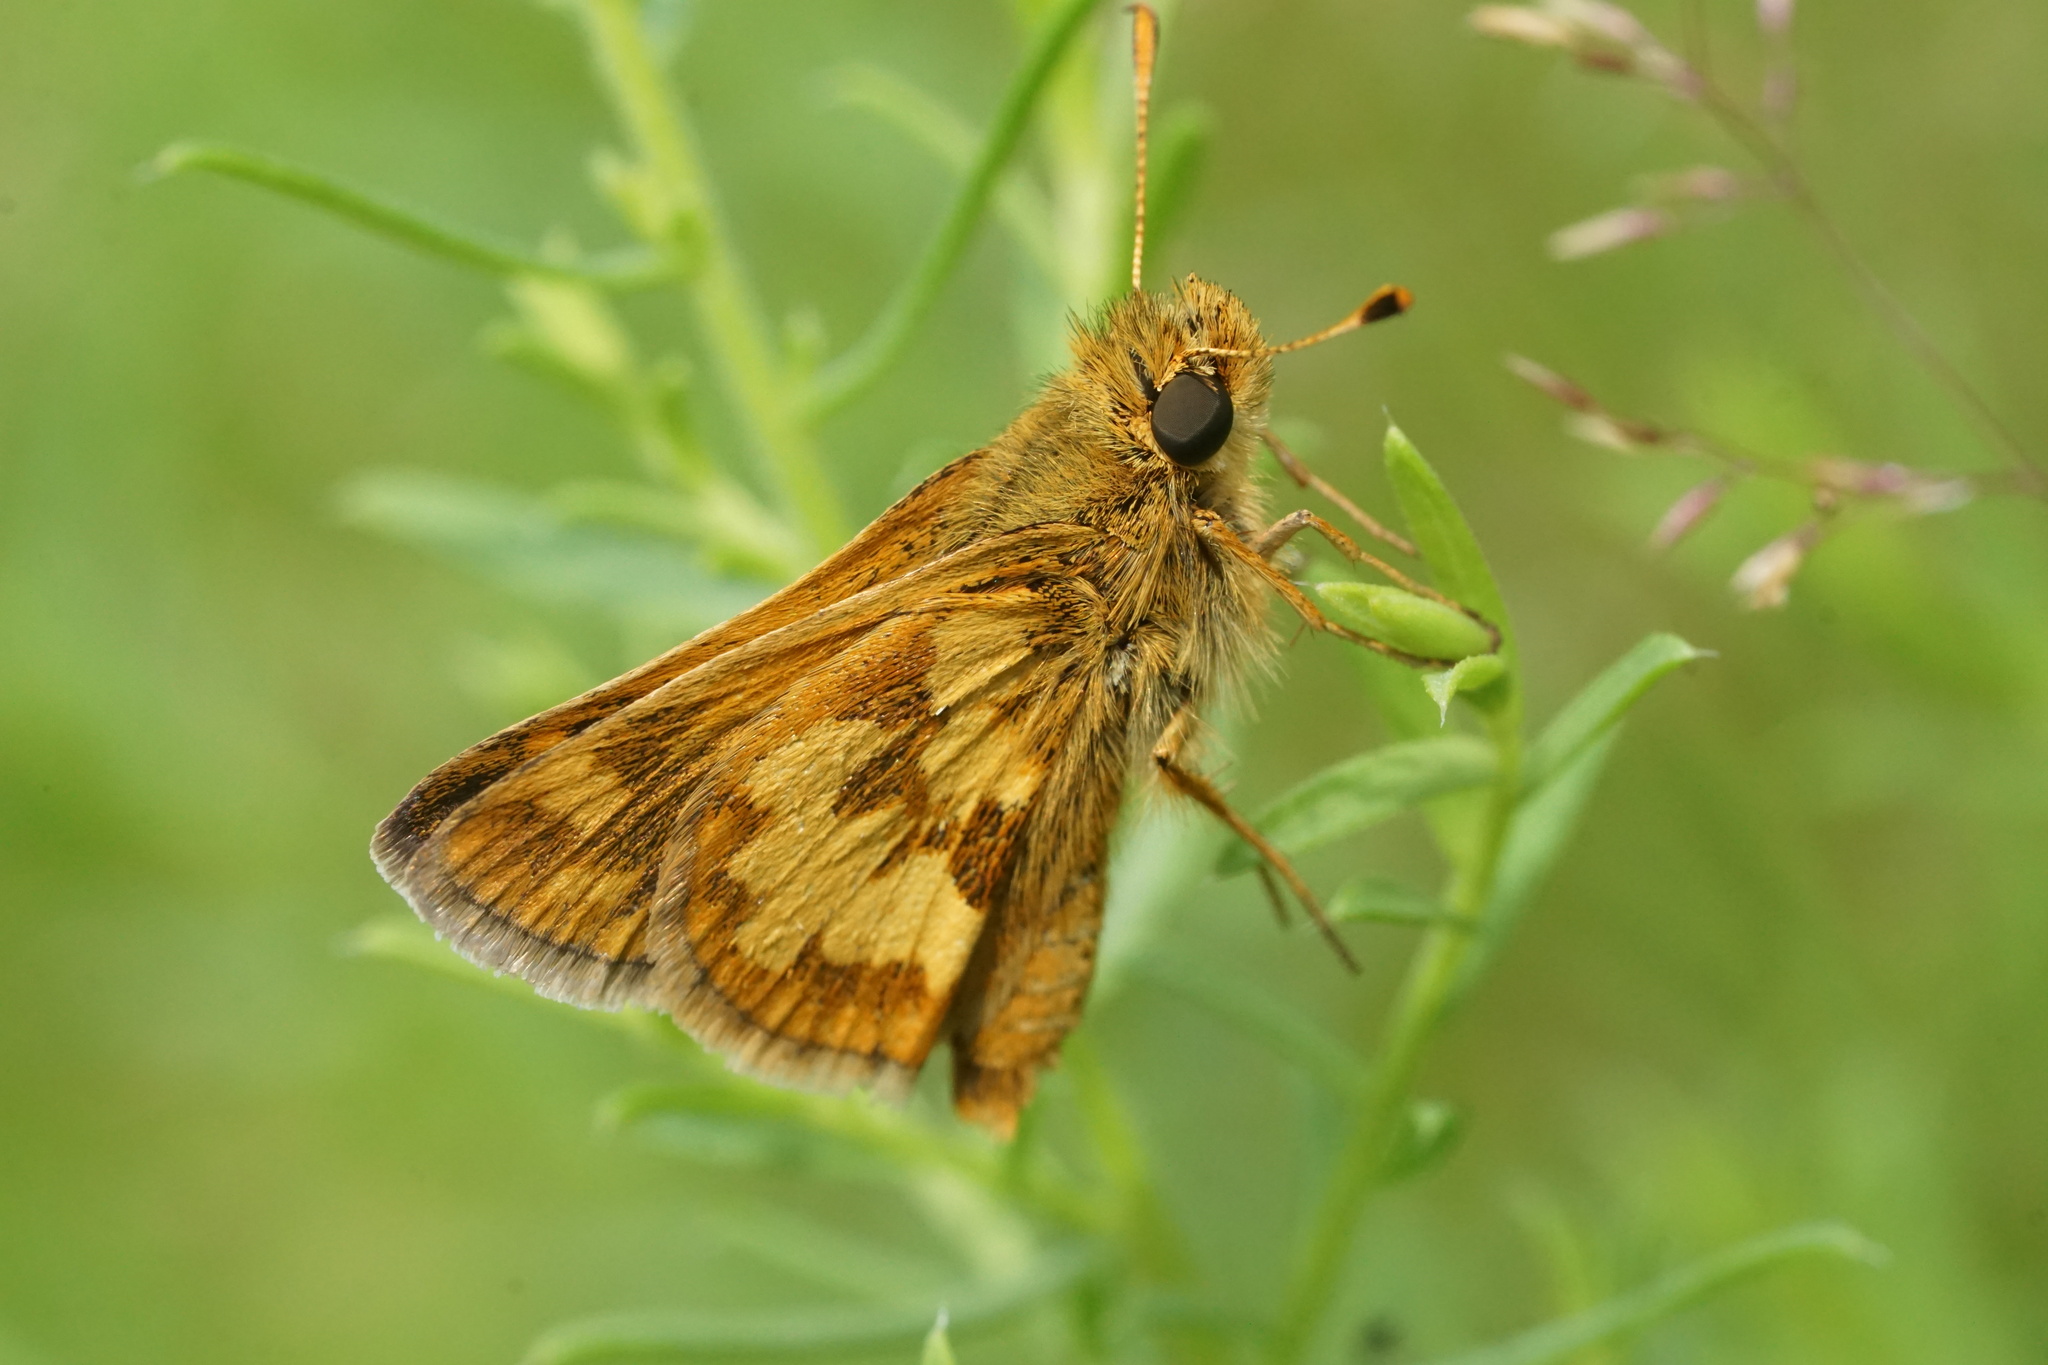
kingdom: Animalia
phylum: Arthropoda
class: Insecta
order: Lepidoptera
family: Hesperiidae
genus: Polites
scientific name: Polites coras
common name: Peck's skipper
